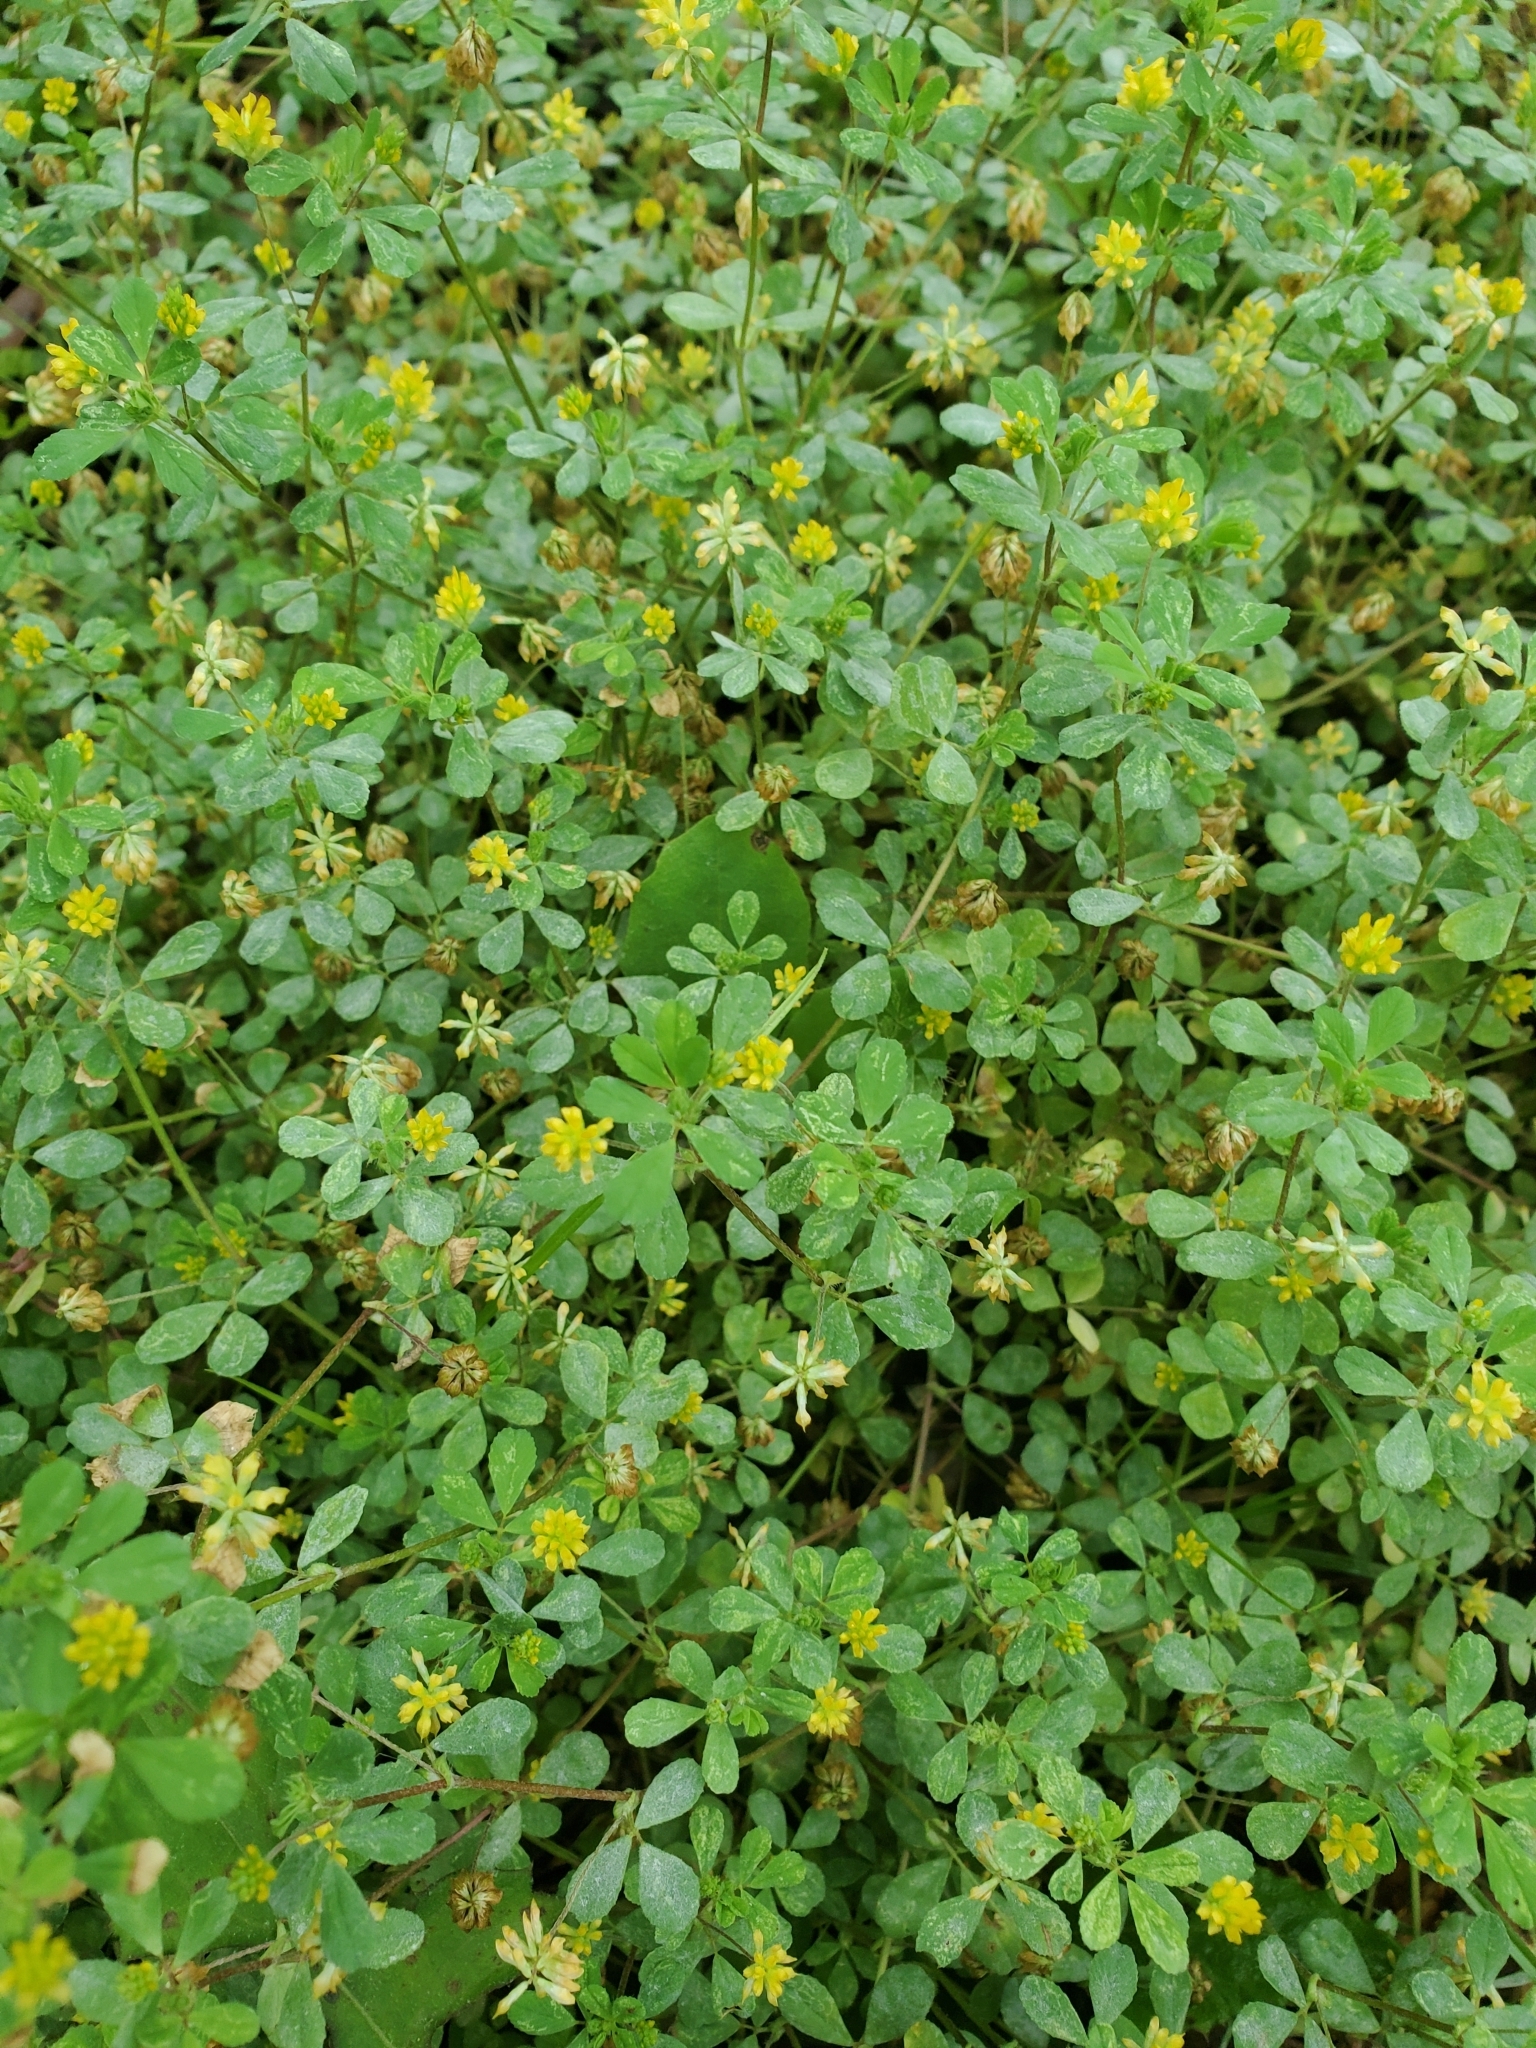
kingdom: Plantae
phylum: Tracheophyta
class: Magnoliopsida
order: Fabales
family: Fabaceae
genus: Trifolium
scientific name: Trifolium dubium
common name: Suckling clover
